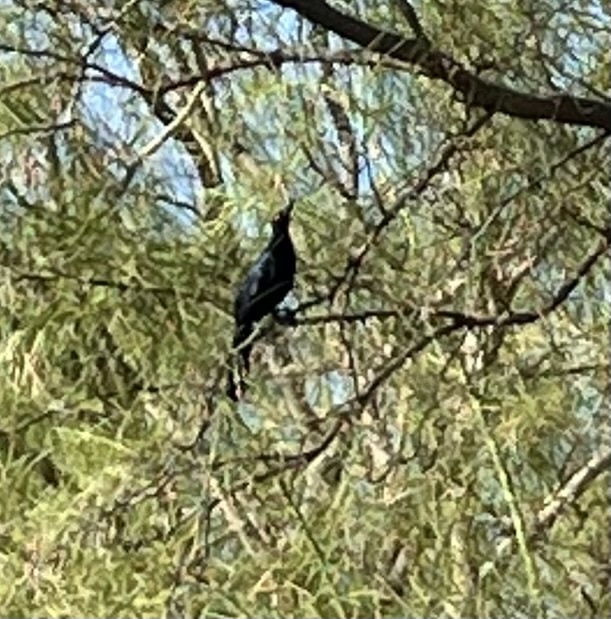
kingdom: Animalia
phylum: Chordata
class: Aves
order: Passeriformes
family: Icteridae
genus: Quiscalus
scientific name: Quiscalus mexicanus
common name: Great-tailed grackle
